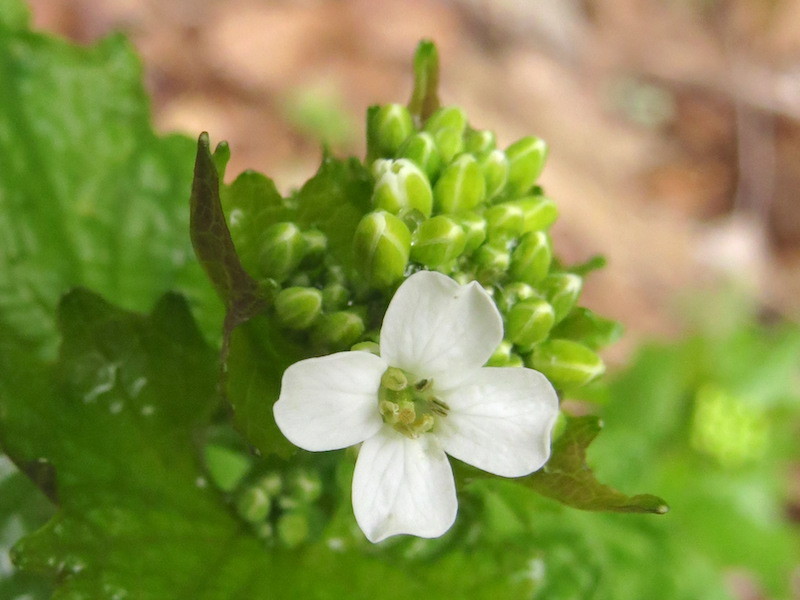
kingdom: Plantae
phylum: Tracheophyta
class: Magnoliopsida
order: Brassicales
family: Brassicaceae
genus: Alliaria
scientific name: Alliaria petiolata
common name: Garlic mustard
